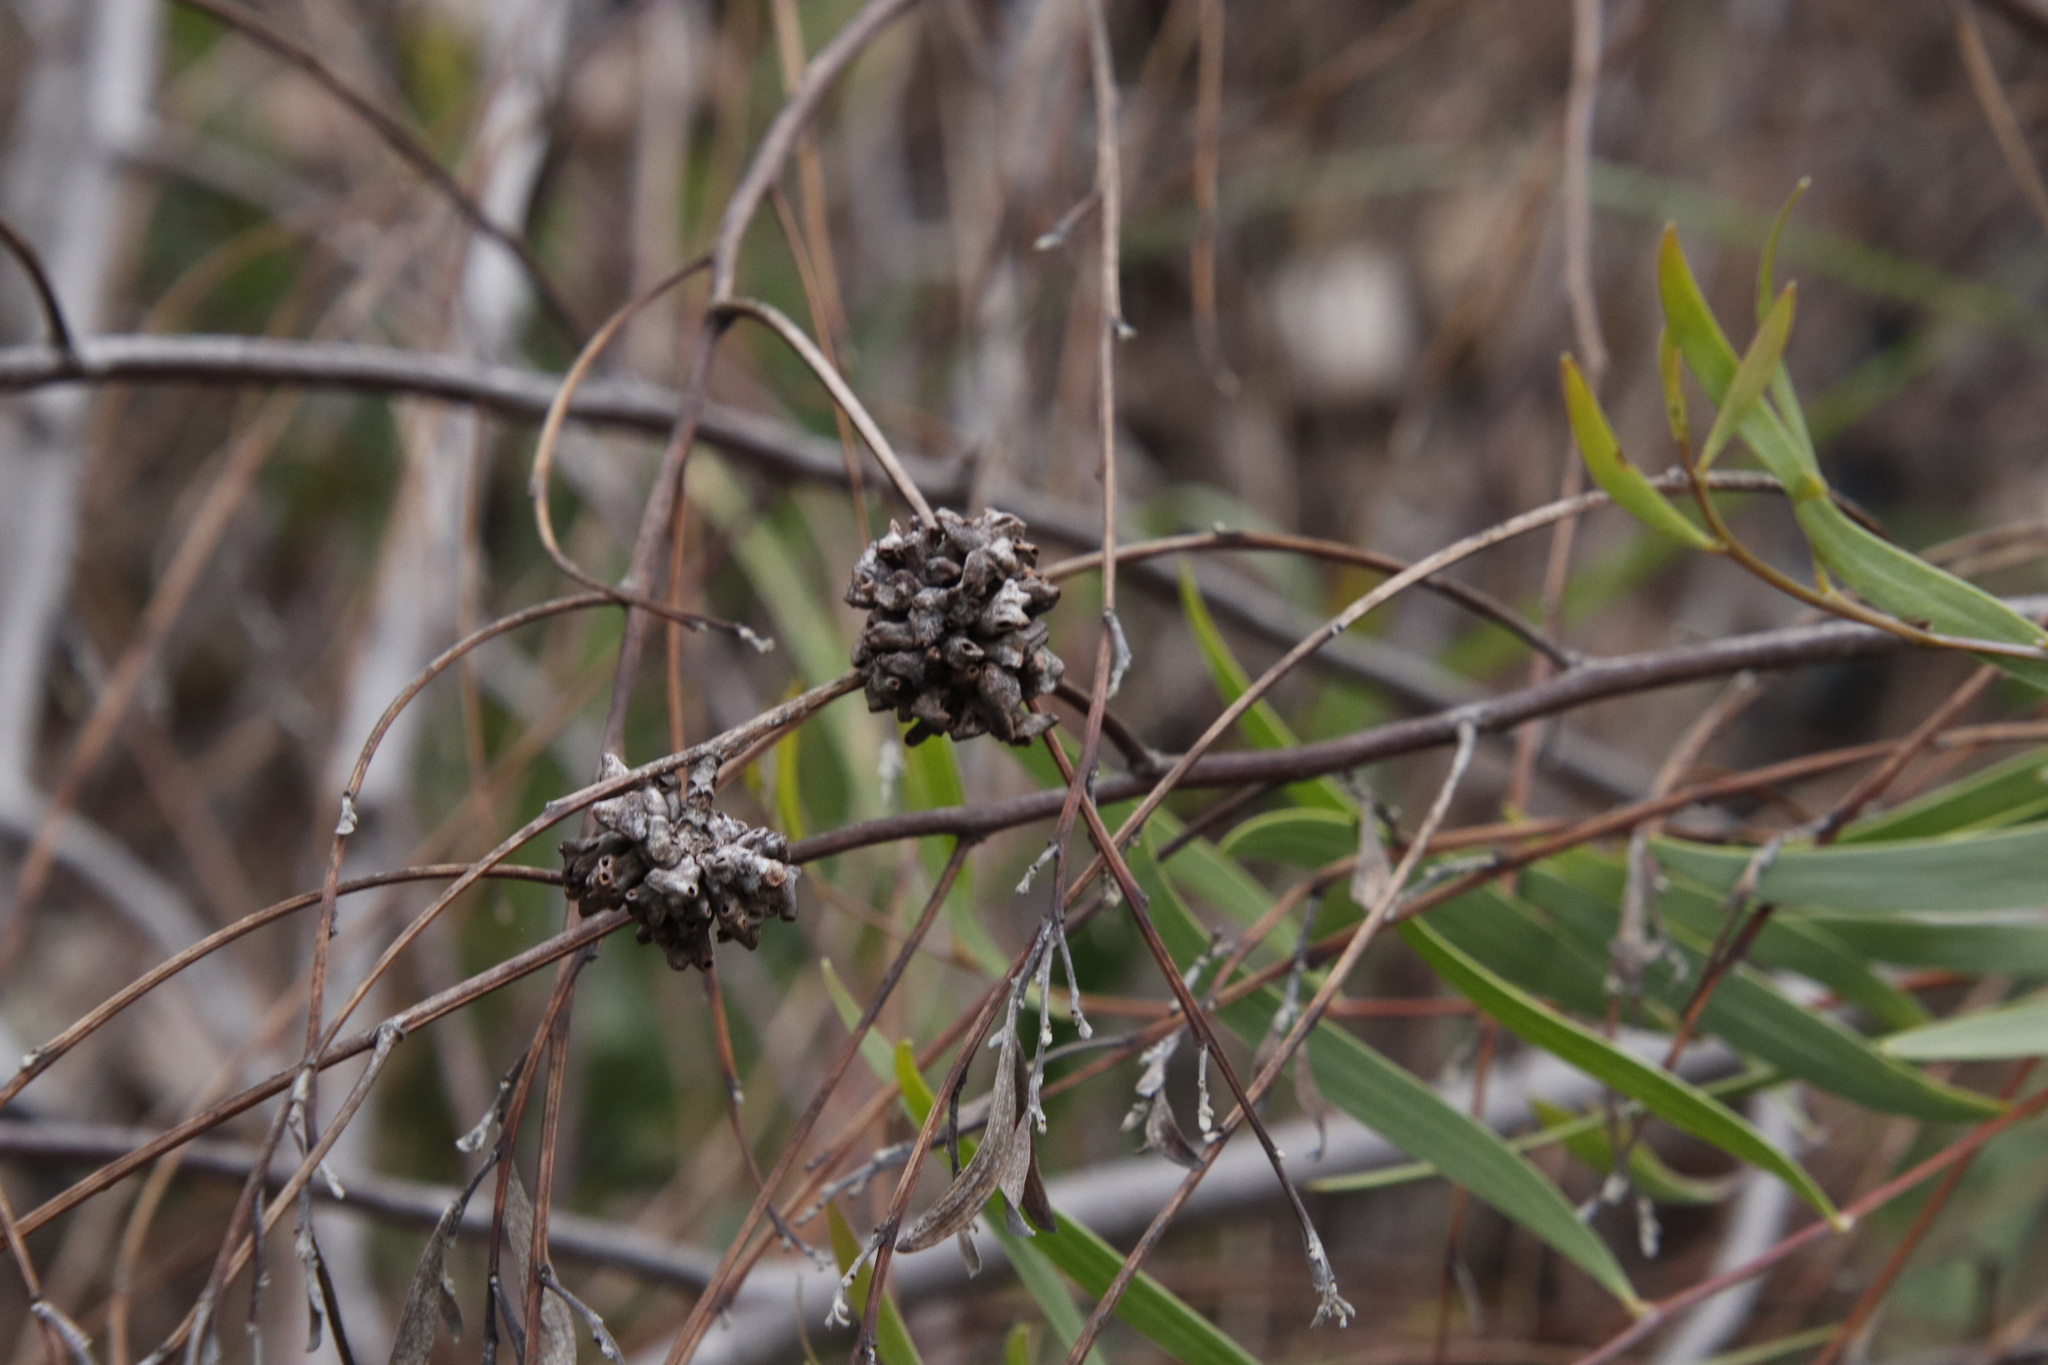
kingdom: Animalia
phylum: Arthropoda
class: Insecta
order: Diptera
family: Cecidomyiidae
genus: Dasineura
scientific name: Dasineura dielsi
